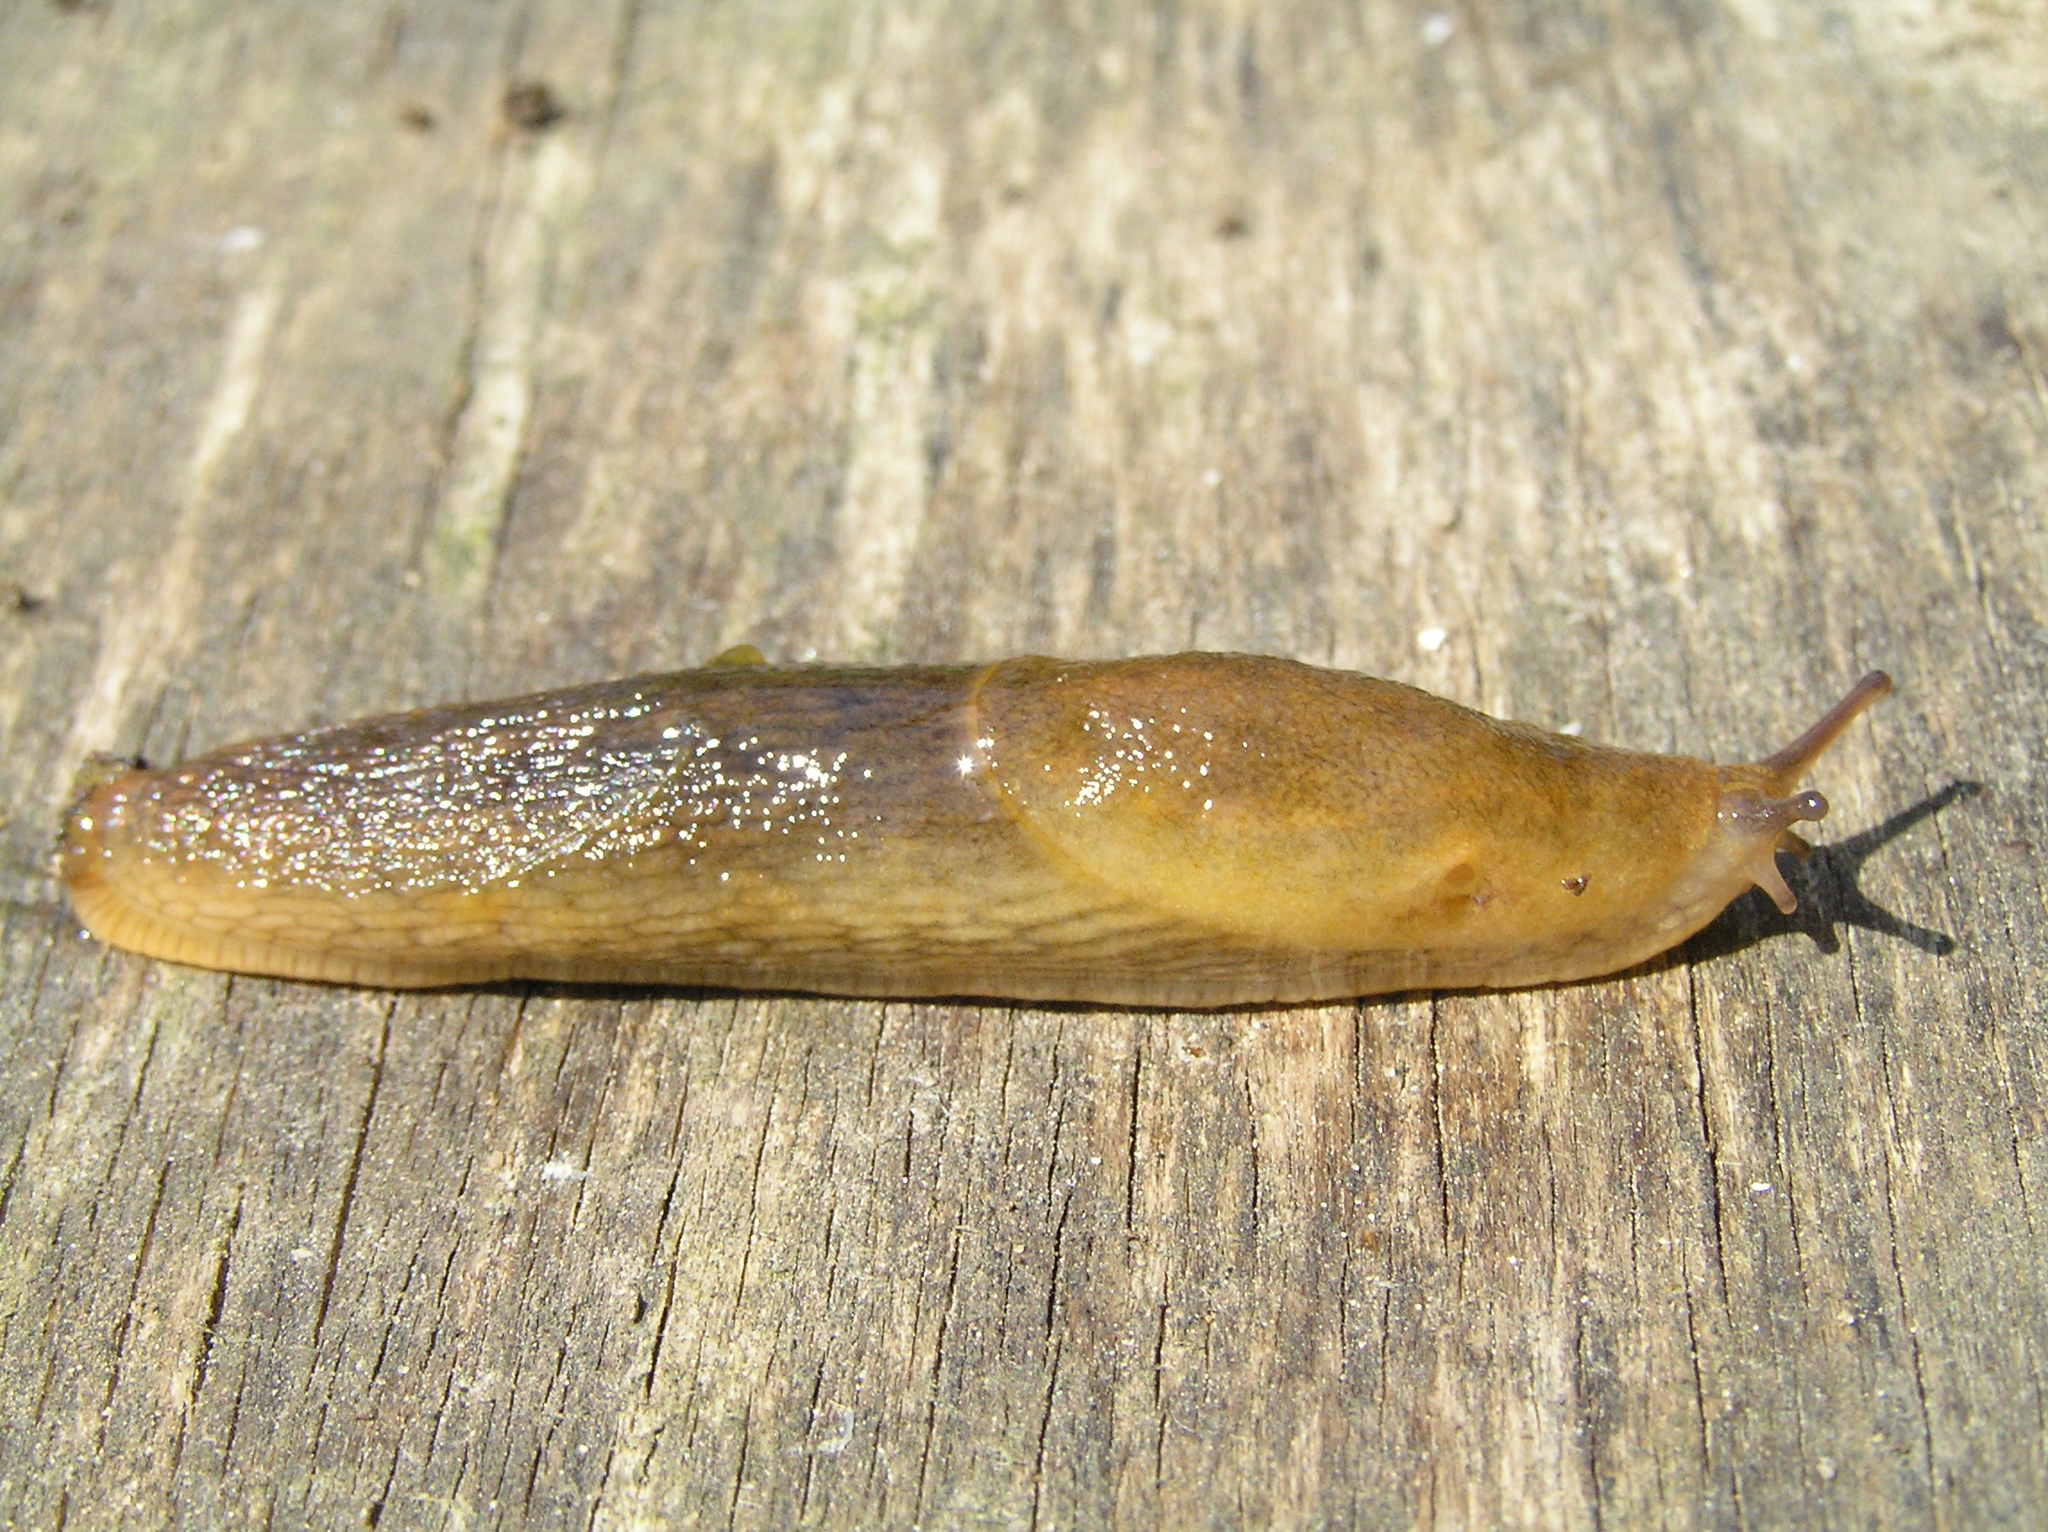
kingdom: Animalia
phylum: Mollusca
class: Gastropoda
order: Stylommatophora
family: Arionidae
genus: Arion
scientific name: Arion fuscus
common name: Northern dusky slug
